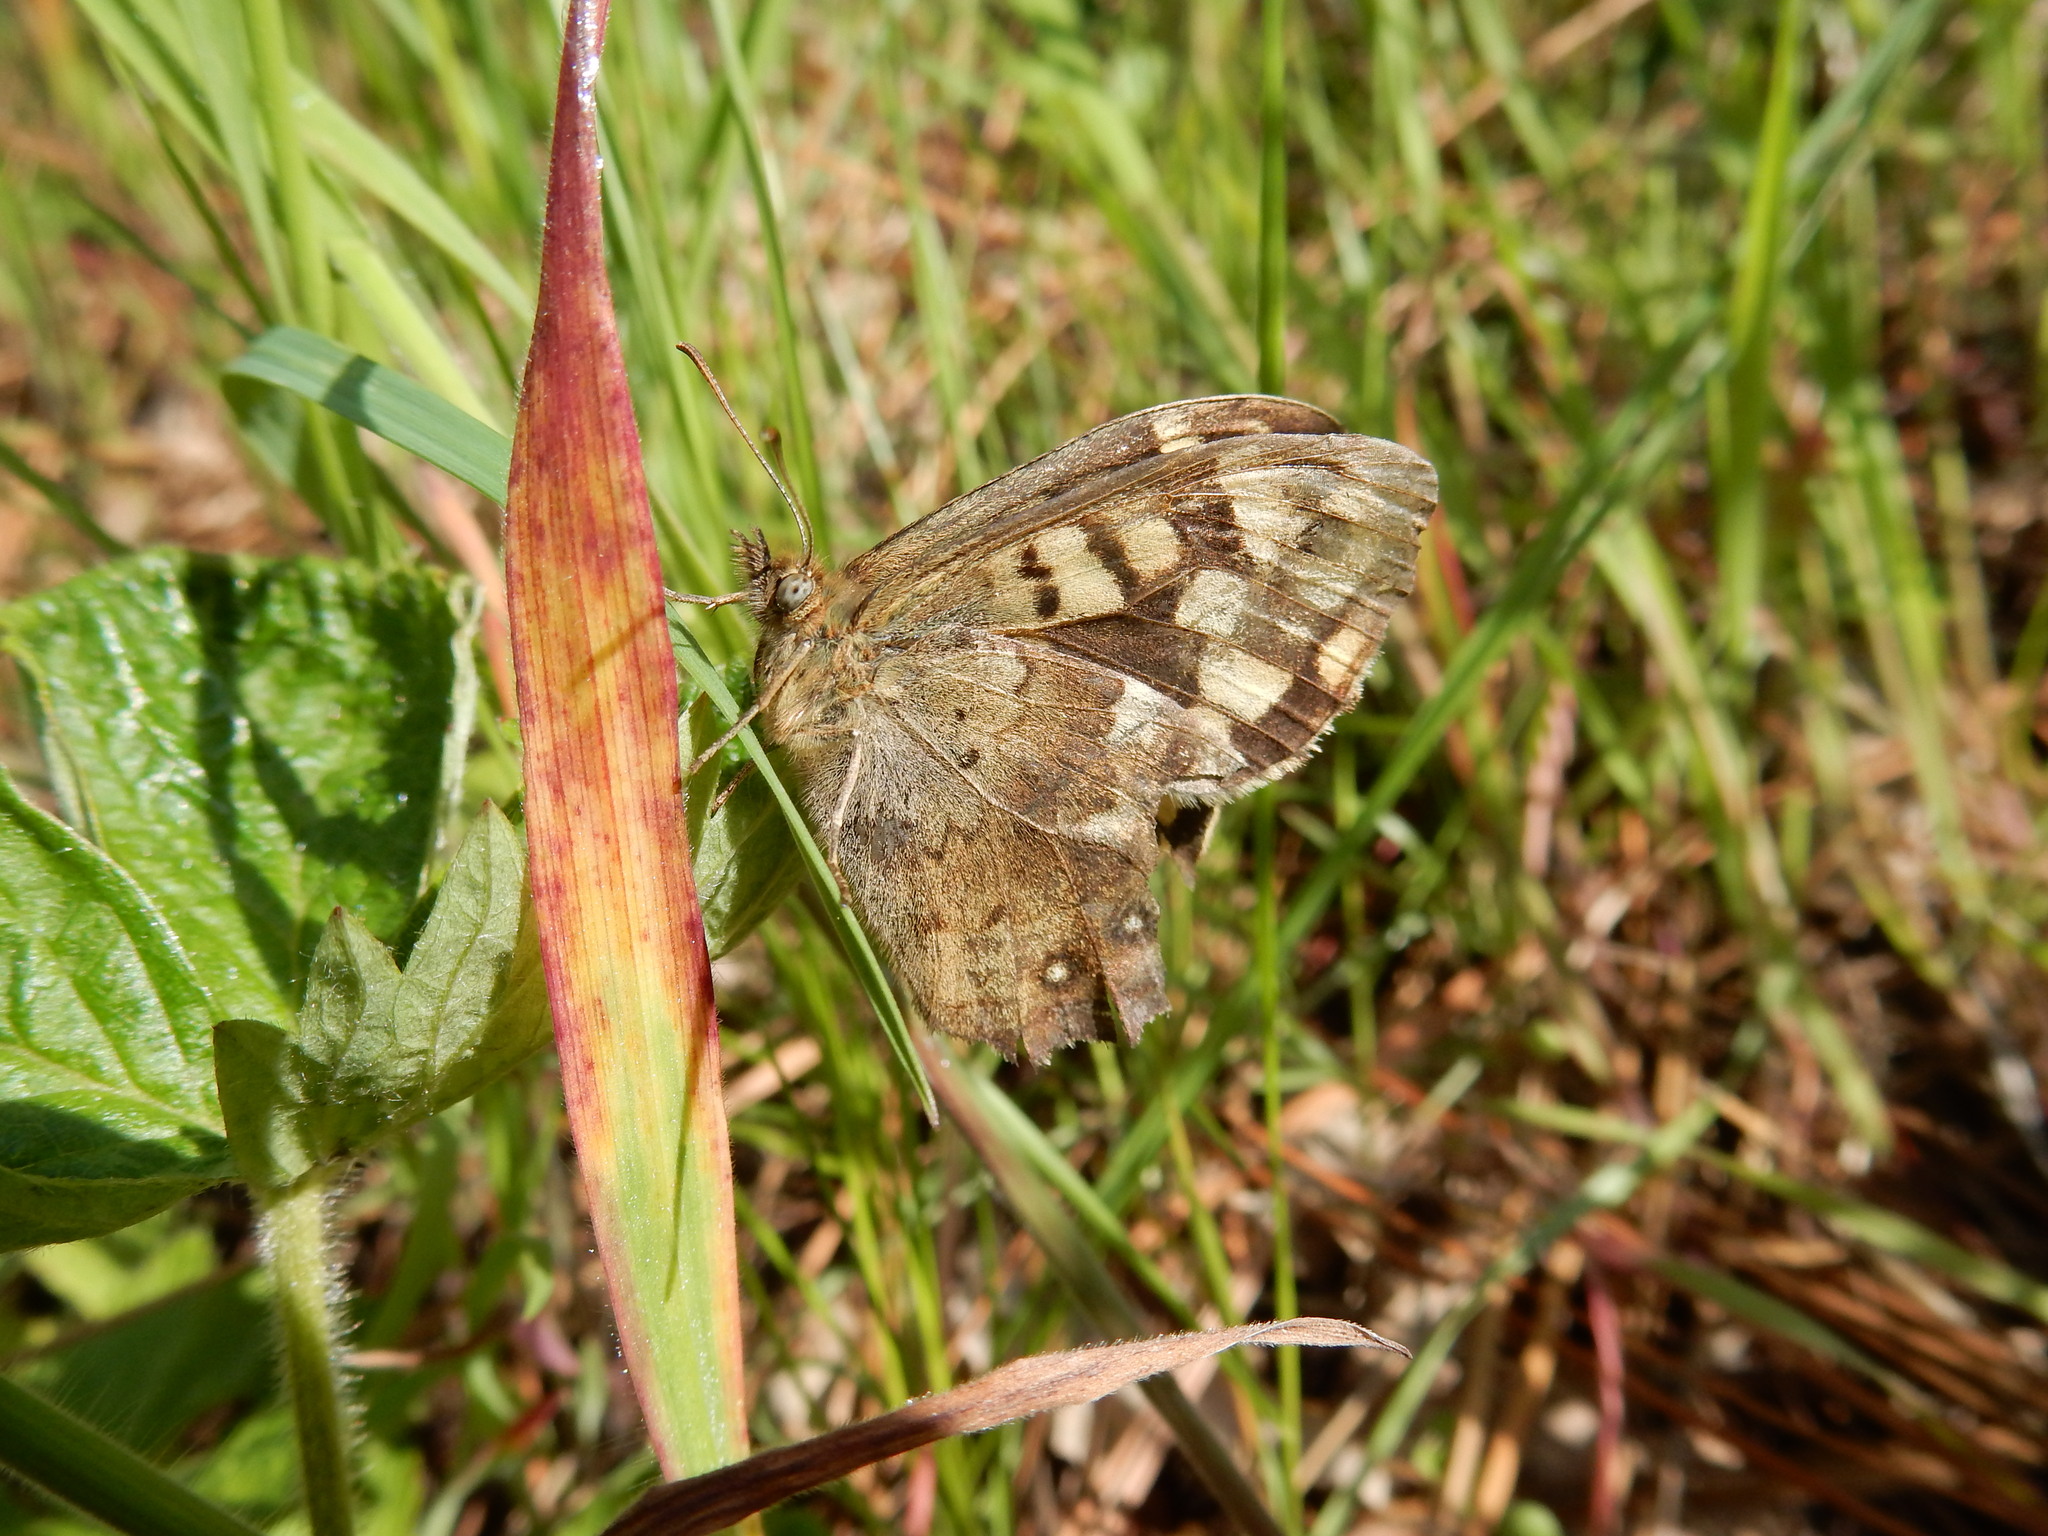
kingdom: Animalia
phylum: Arthropoda
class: Insecta
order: Lepidoptera
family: Nymphalidae
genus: Pararge
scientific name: Pararge aegeria
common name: Speckled wood
